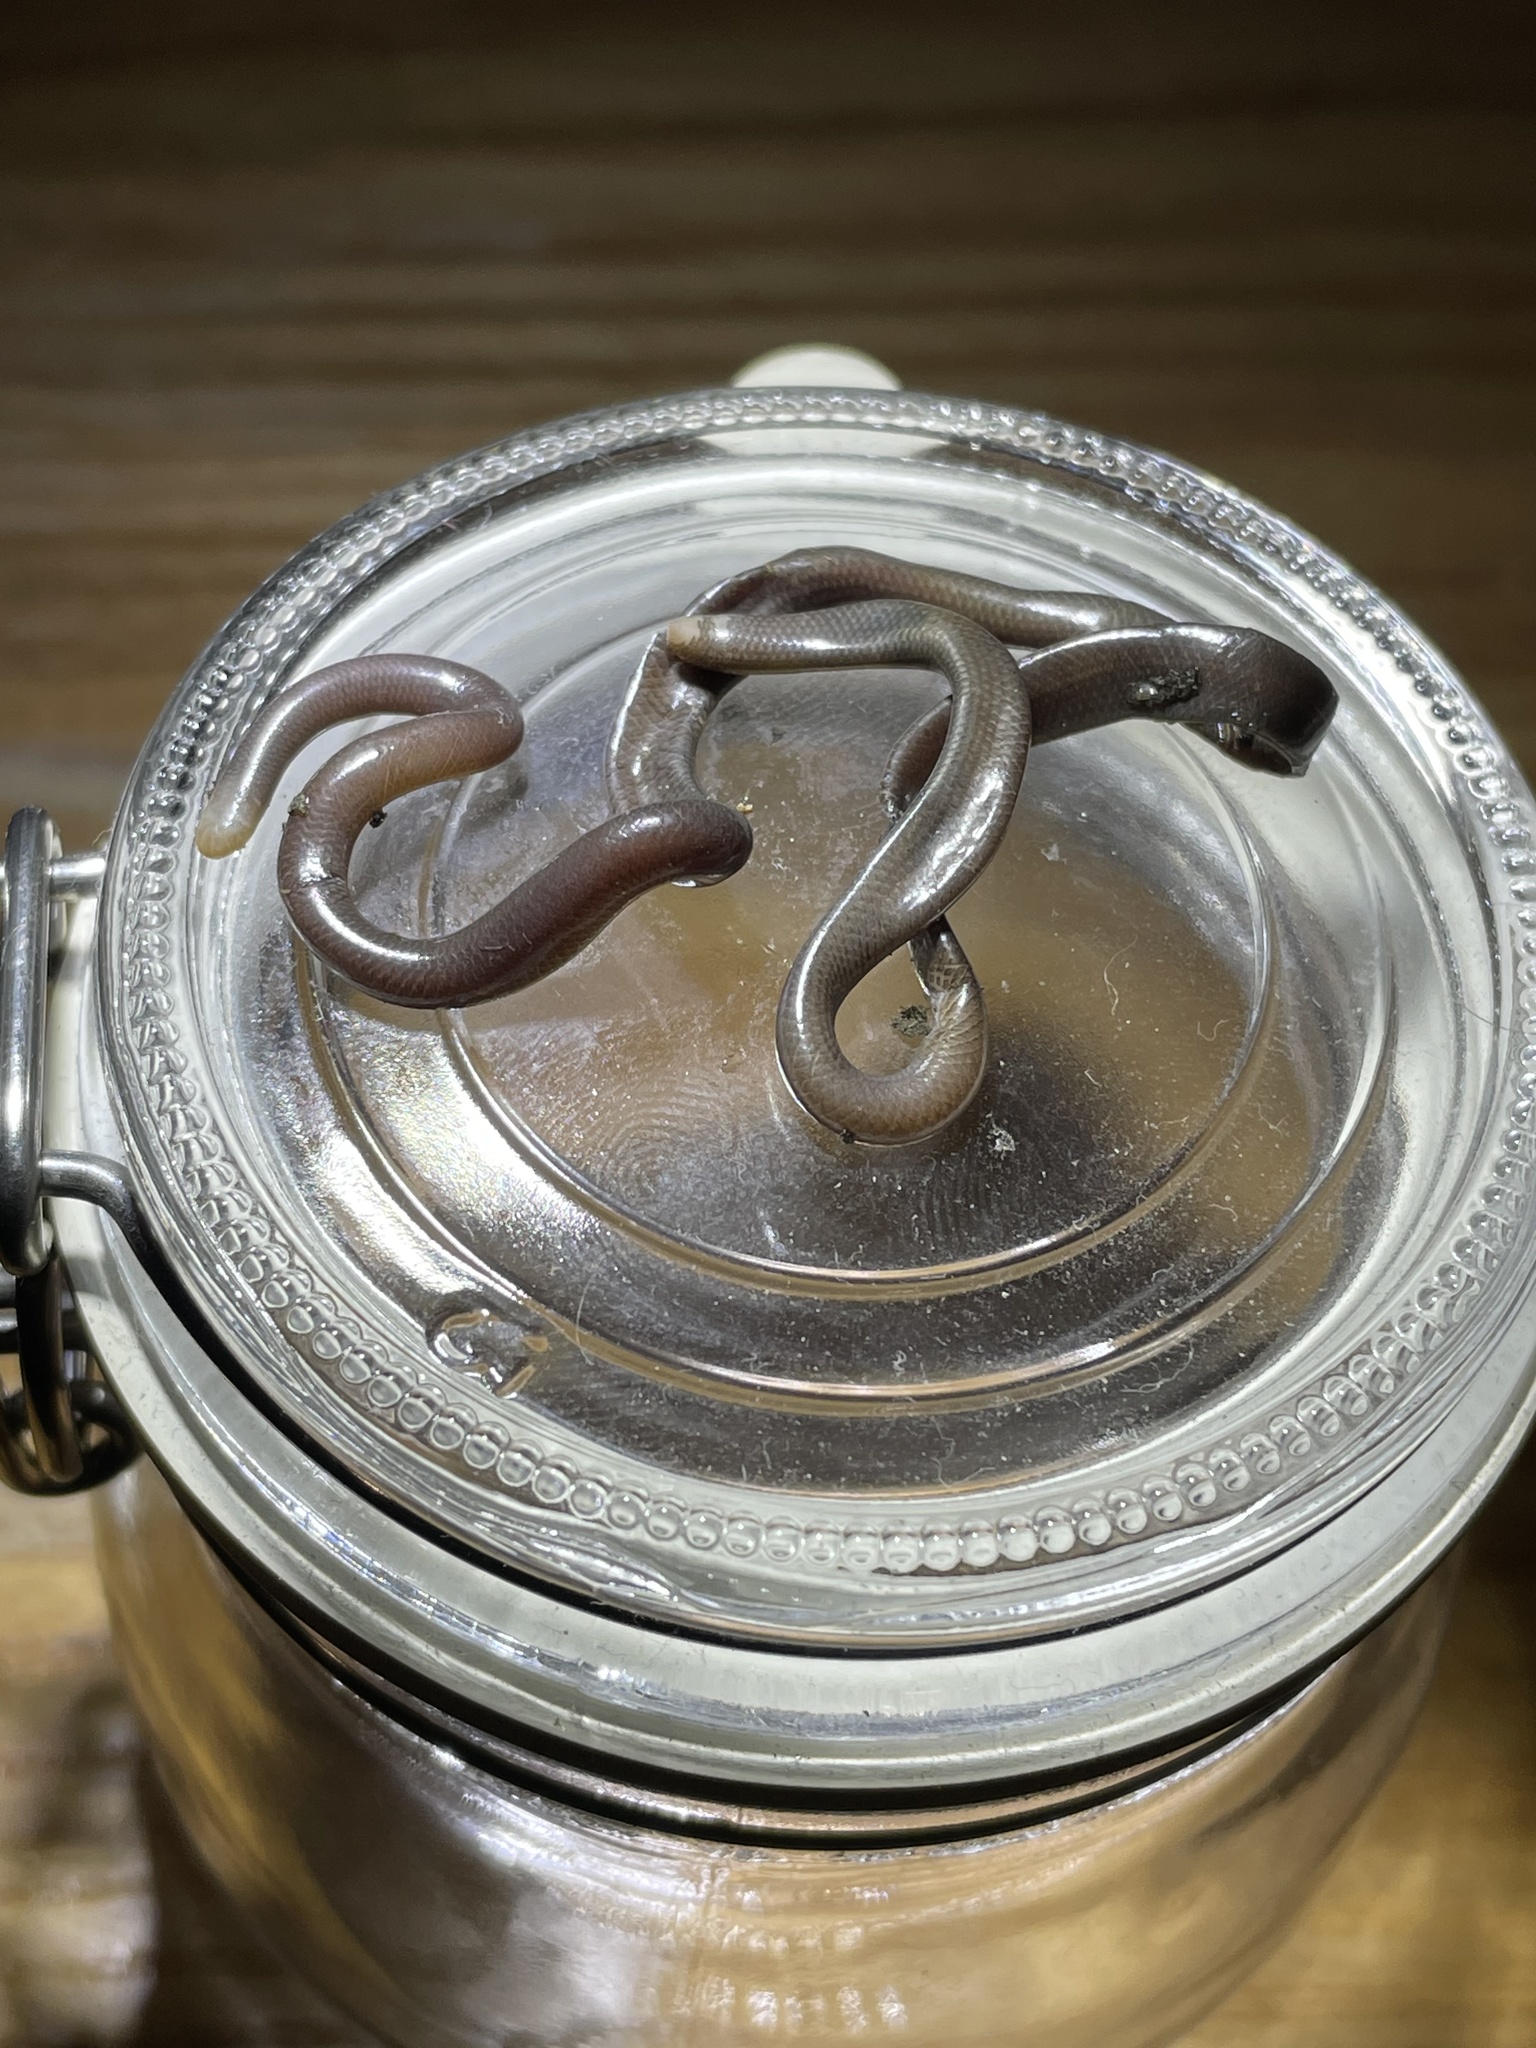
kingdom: Animalia
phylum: Chordata
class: Squamata
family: Typhlopidae
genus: Indotyphlops
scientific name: Indotyphlops albiceps
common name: White-headed blind snake
